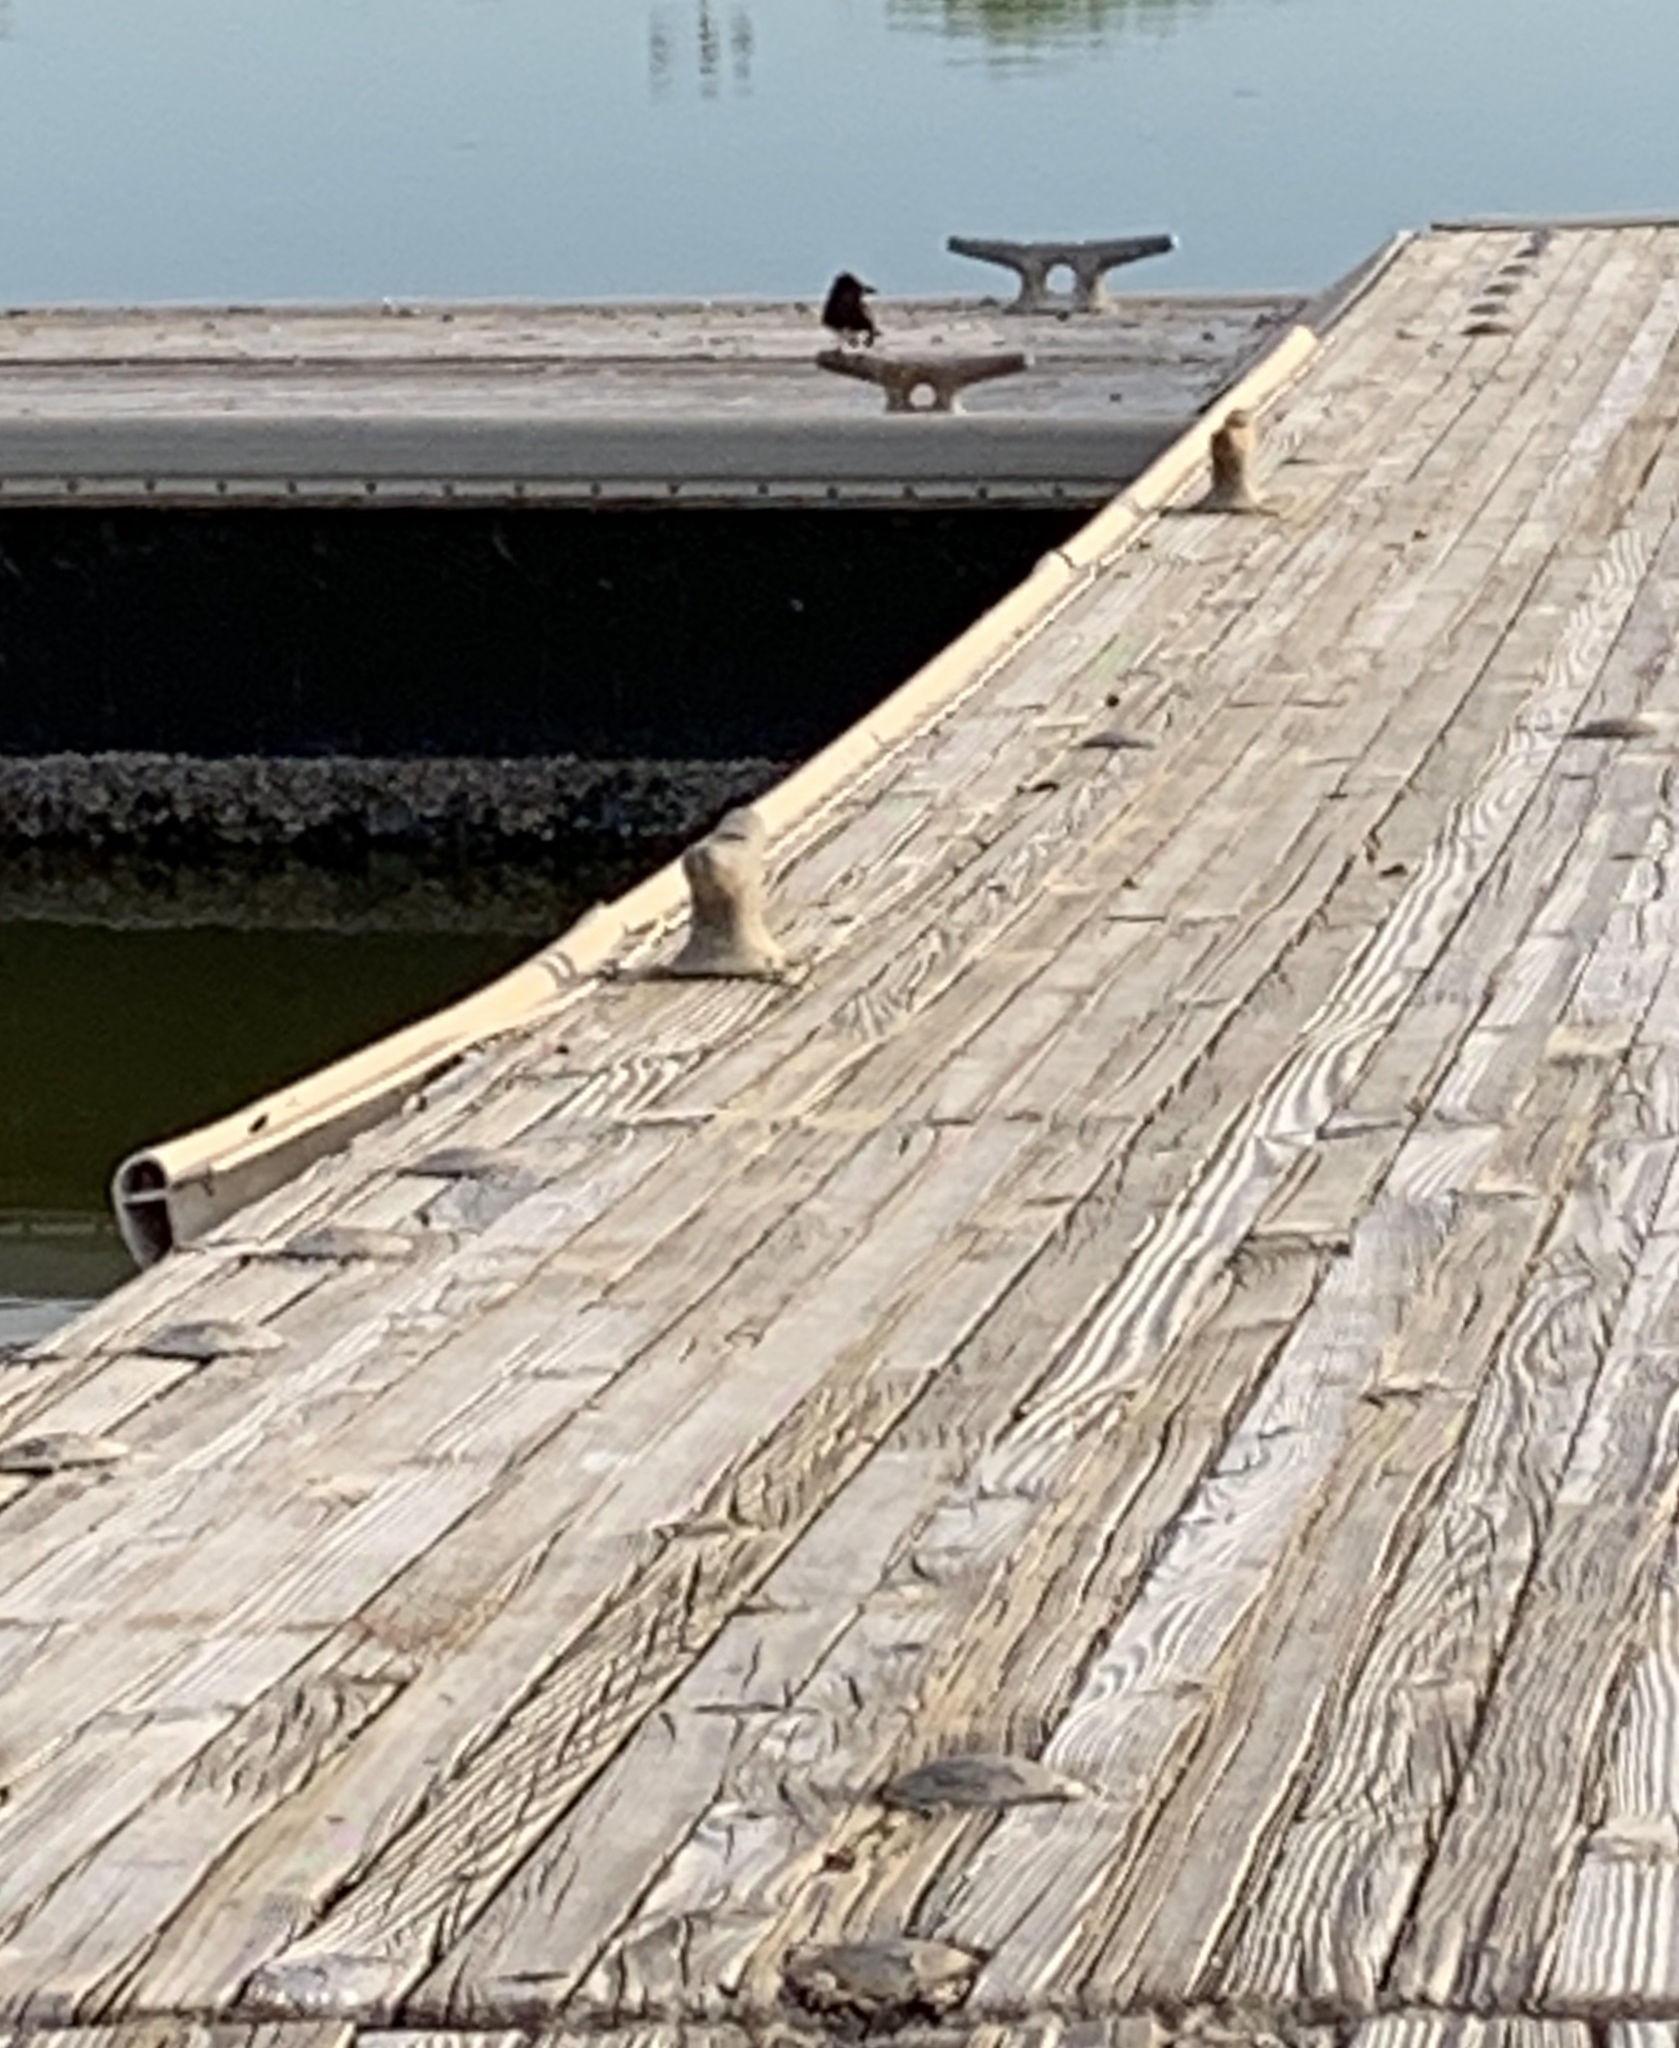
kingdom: Animalia
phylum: Chordata
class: Aves
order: Passeriformes
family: Tyrannidae
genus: Sayornis
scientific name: Sayornis nigricans
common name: Black phoebe
